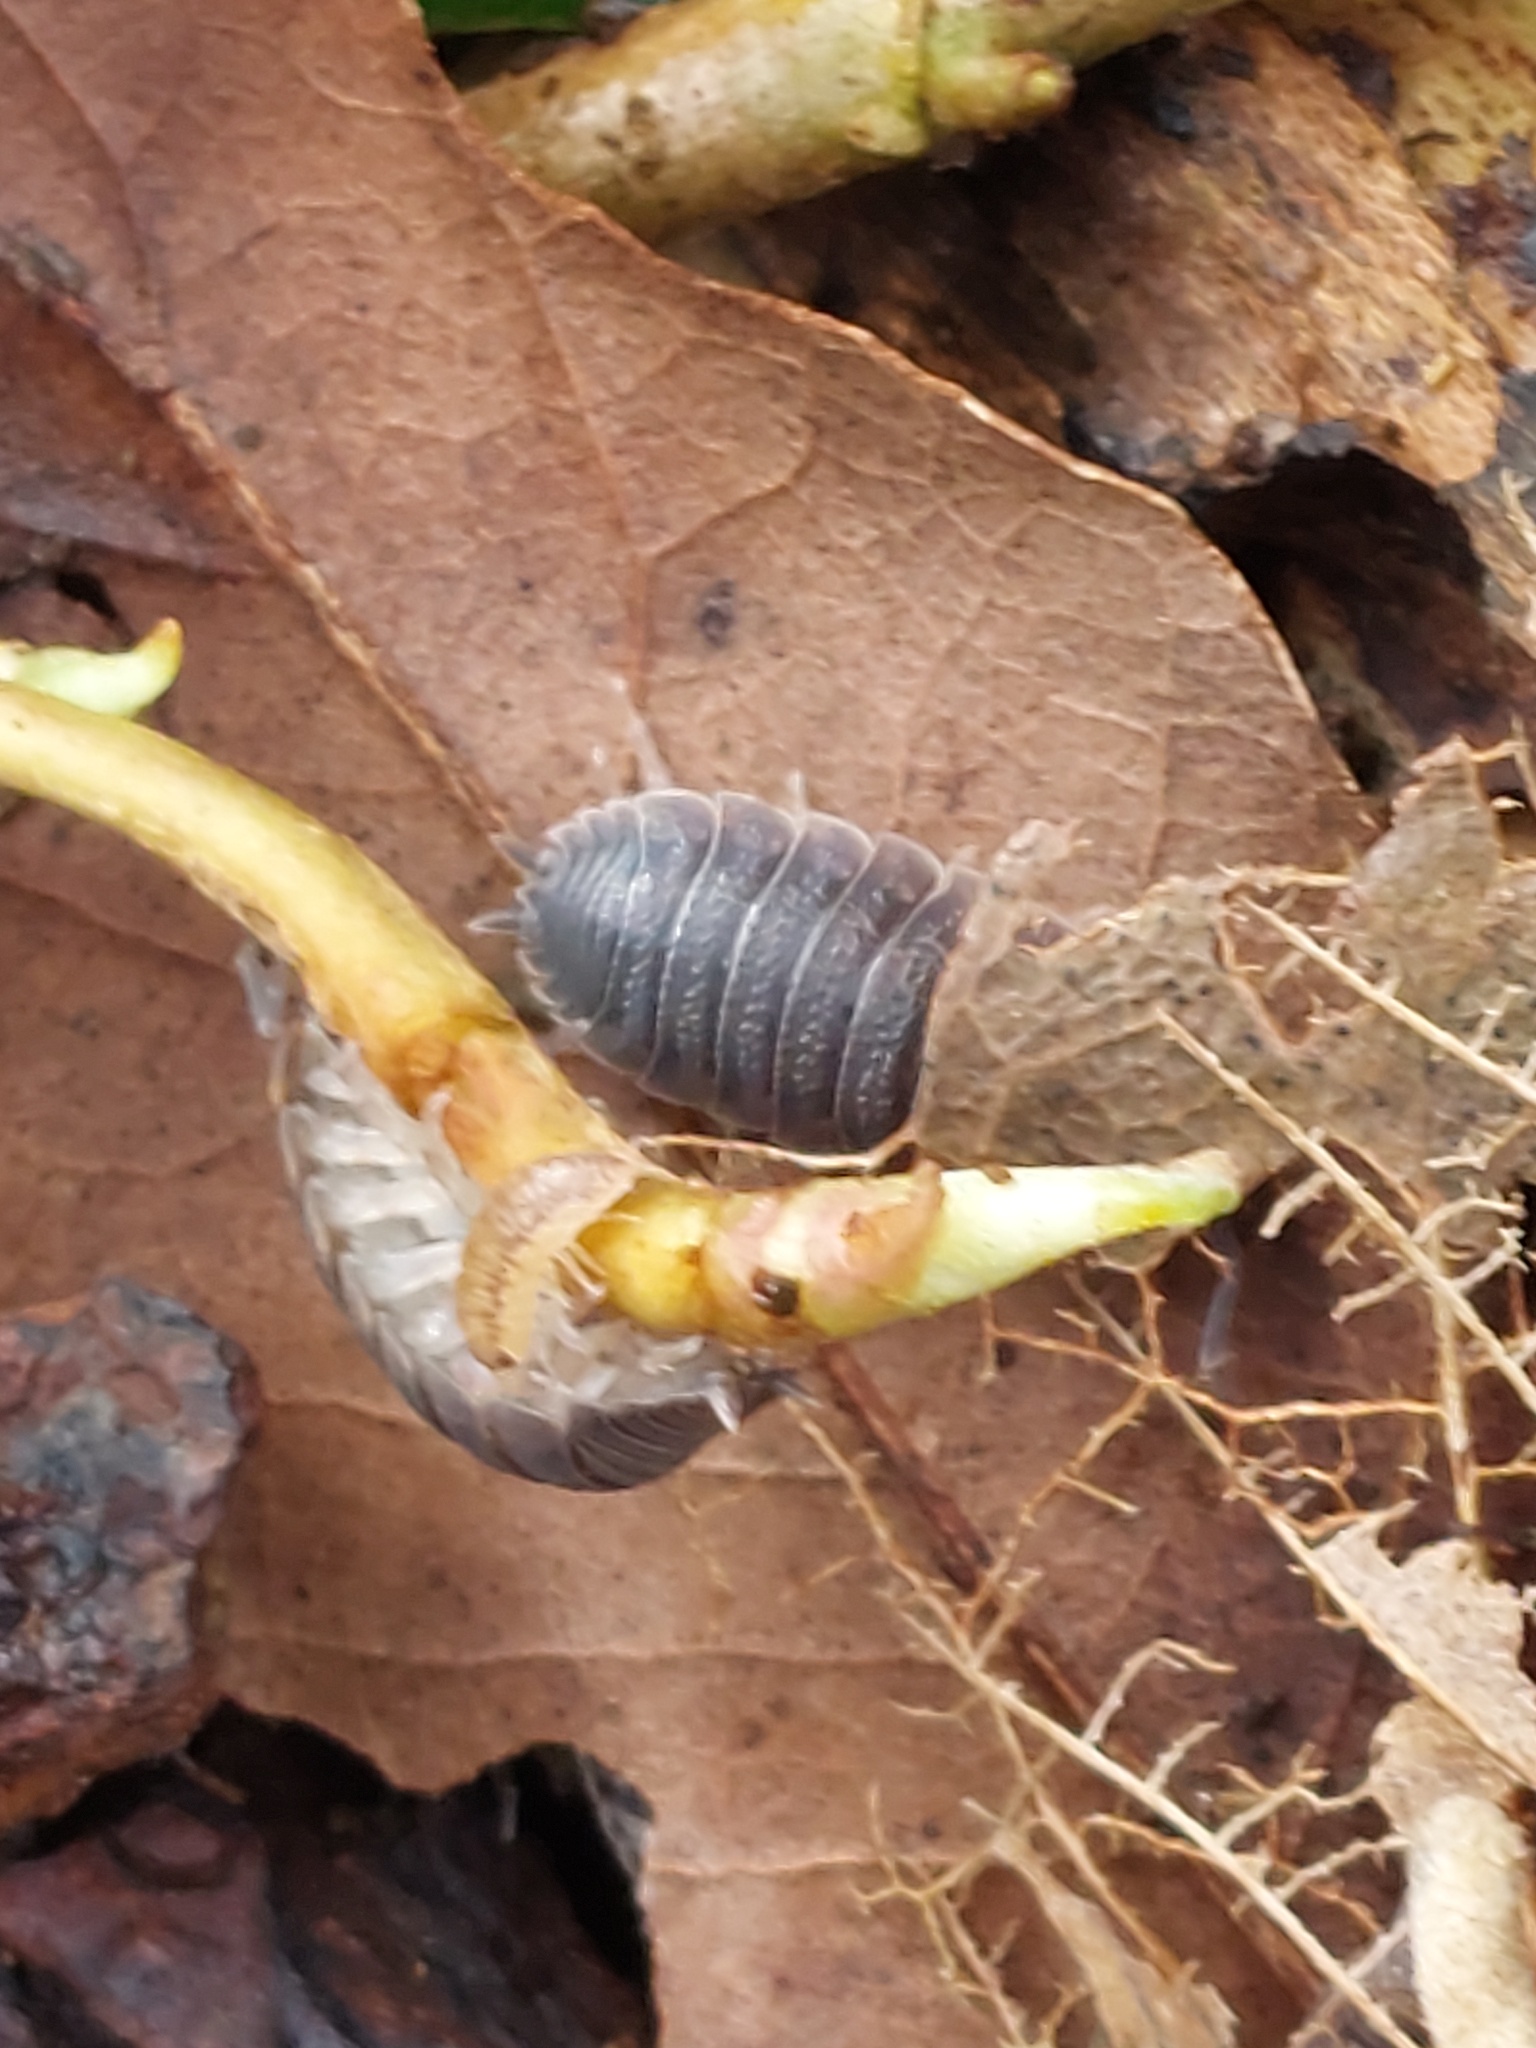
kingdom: Animalia
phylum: Arthropoda
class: Malacostraca
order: Isopoda
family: Porcellionidae
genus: Porcellio
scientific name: Porcellio scaber
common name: Common rough woodlouse
